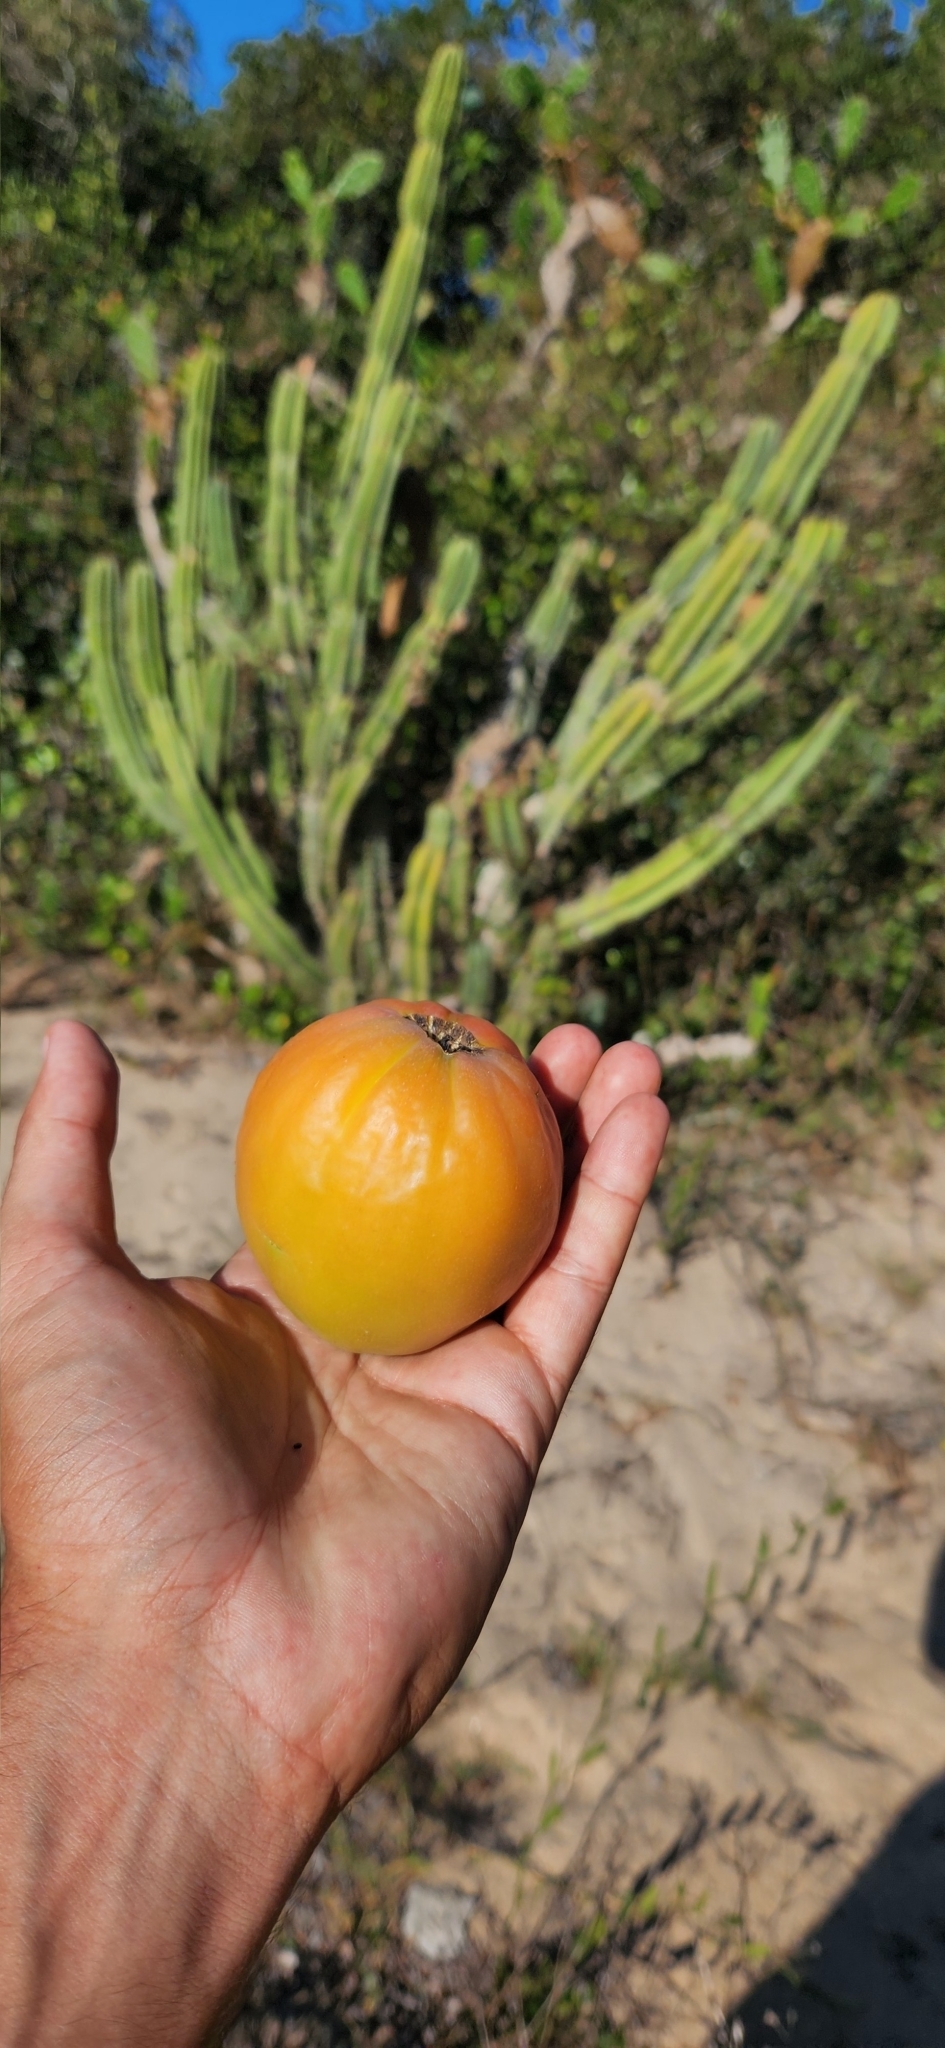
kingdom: Plantae
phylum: Tracheophyta
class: Magnoliopsida
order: Caryophyllales
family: Cactaceae
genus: Cereus
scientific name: Cereus hildmannianus
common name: Hedge cactus
